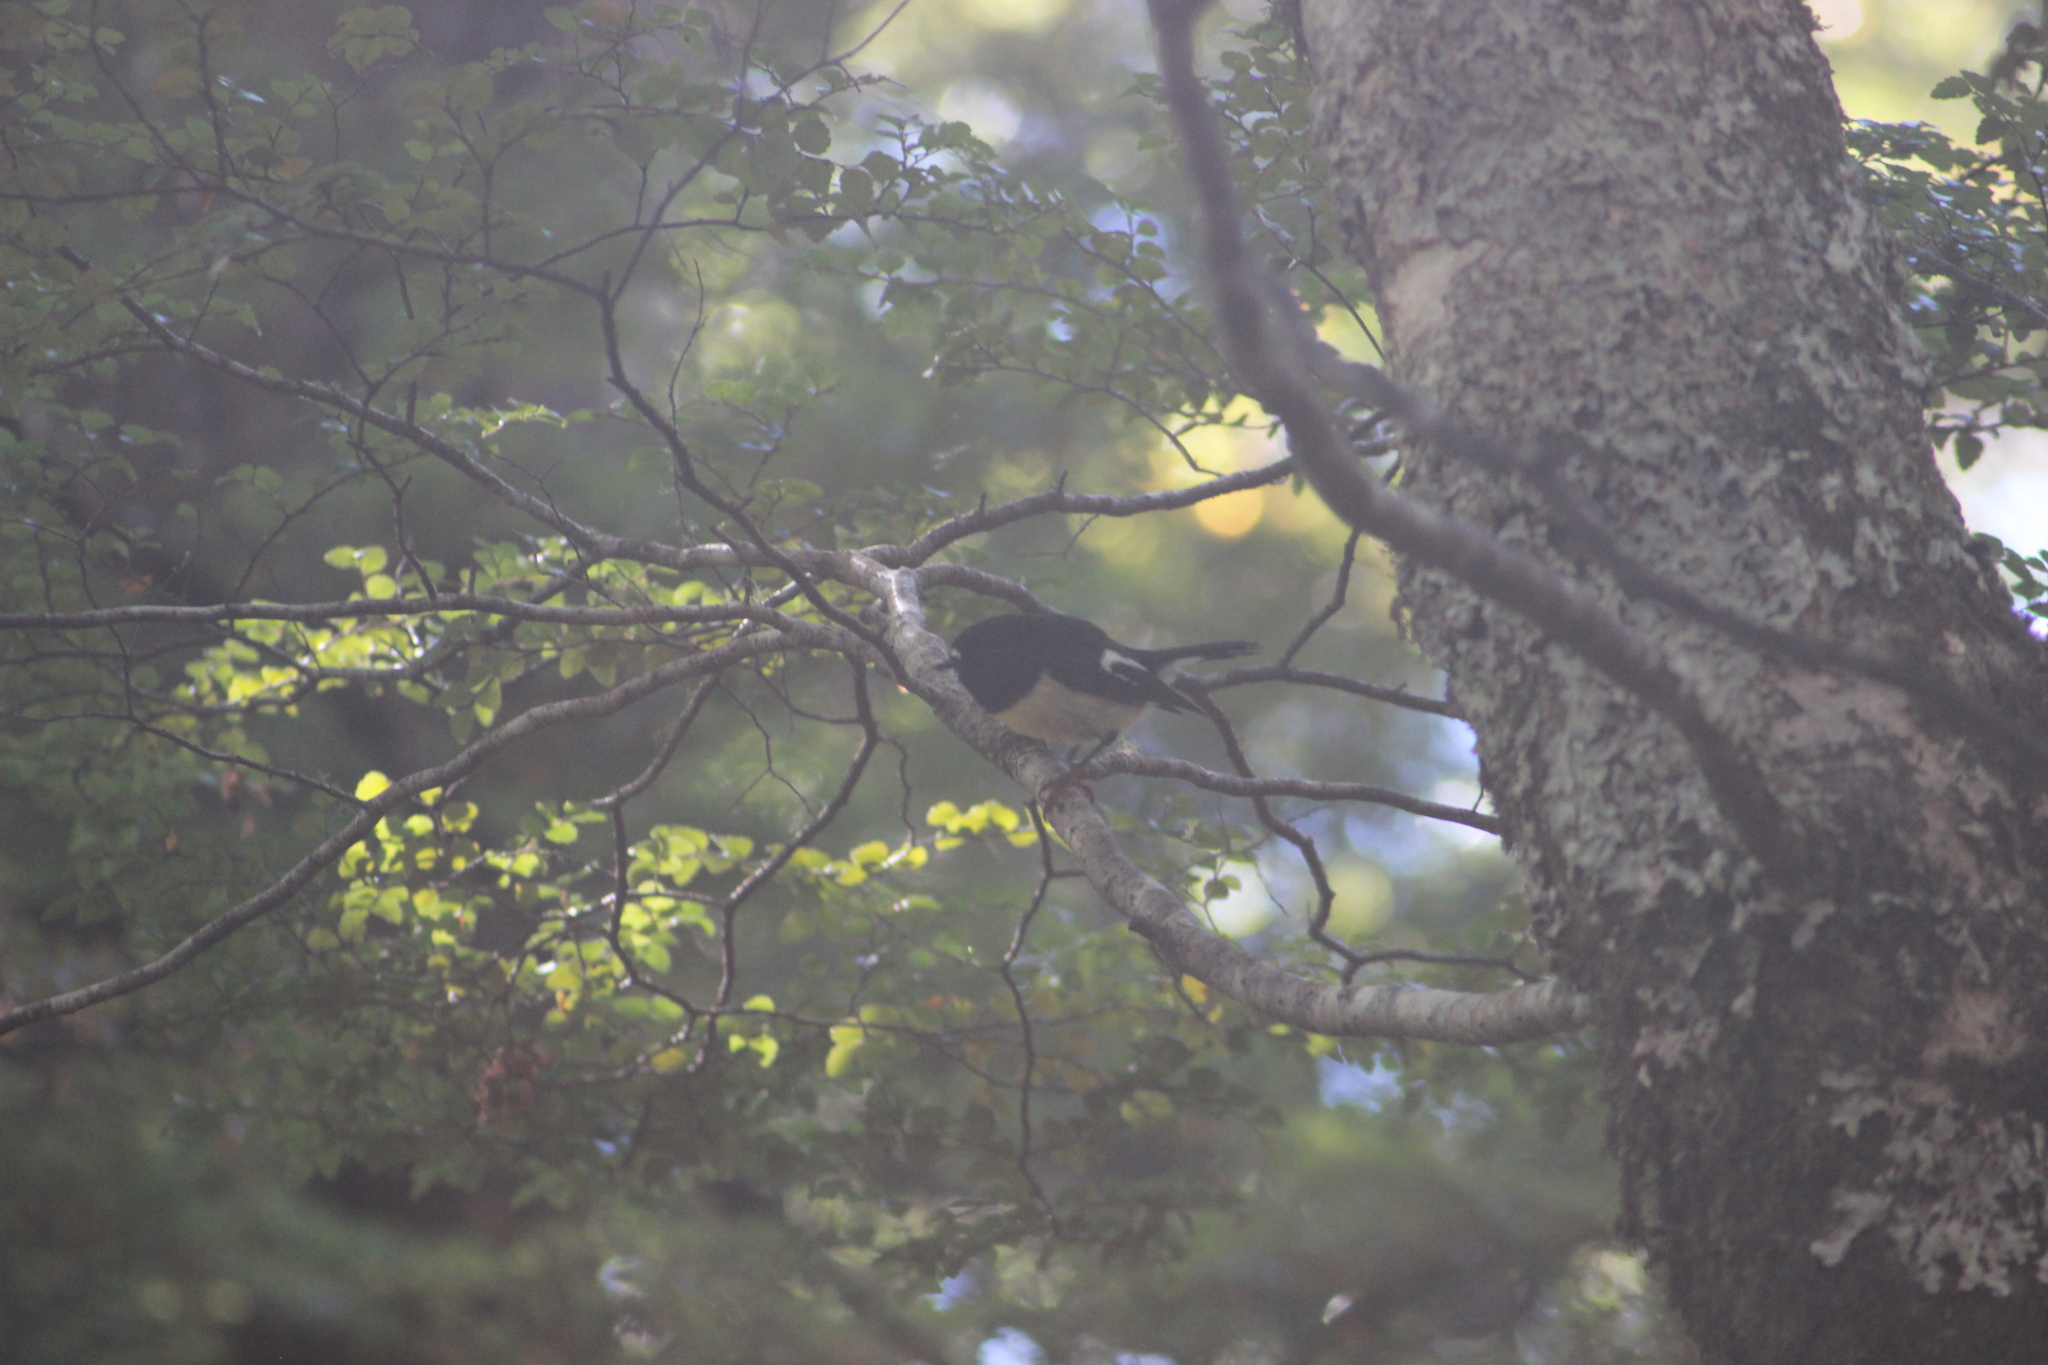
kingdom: Animalia
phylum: Chordata
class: Aves
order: Passeriformes
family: Petroicidae
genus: Petroica
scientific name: Petroica macrocephala
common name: Tomtit
